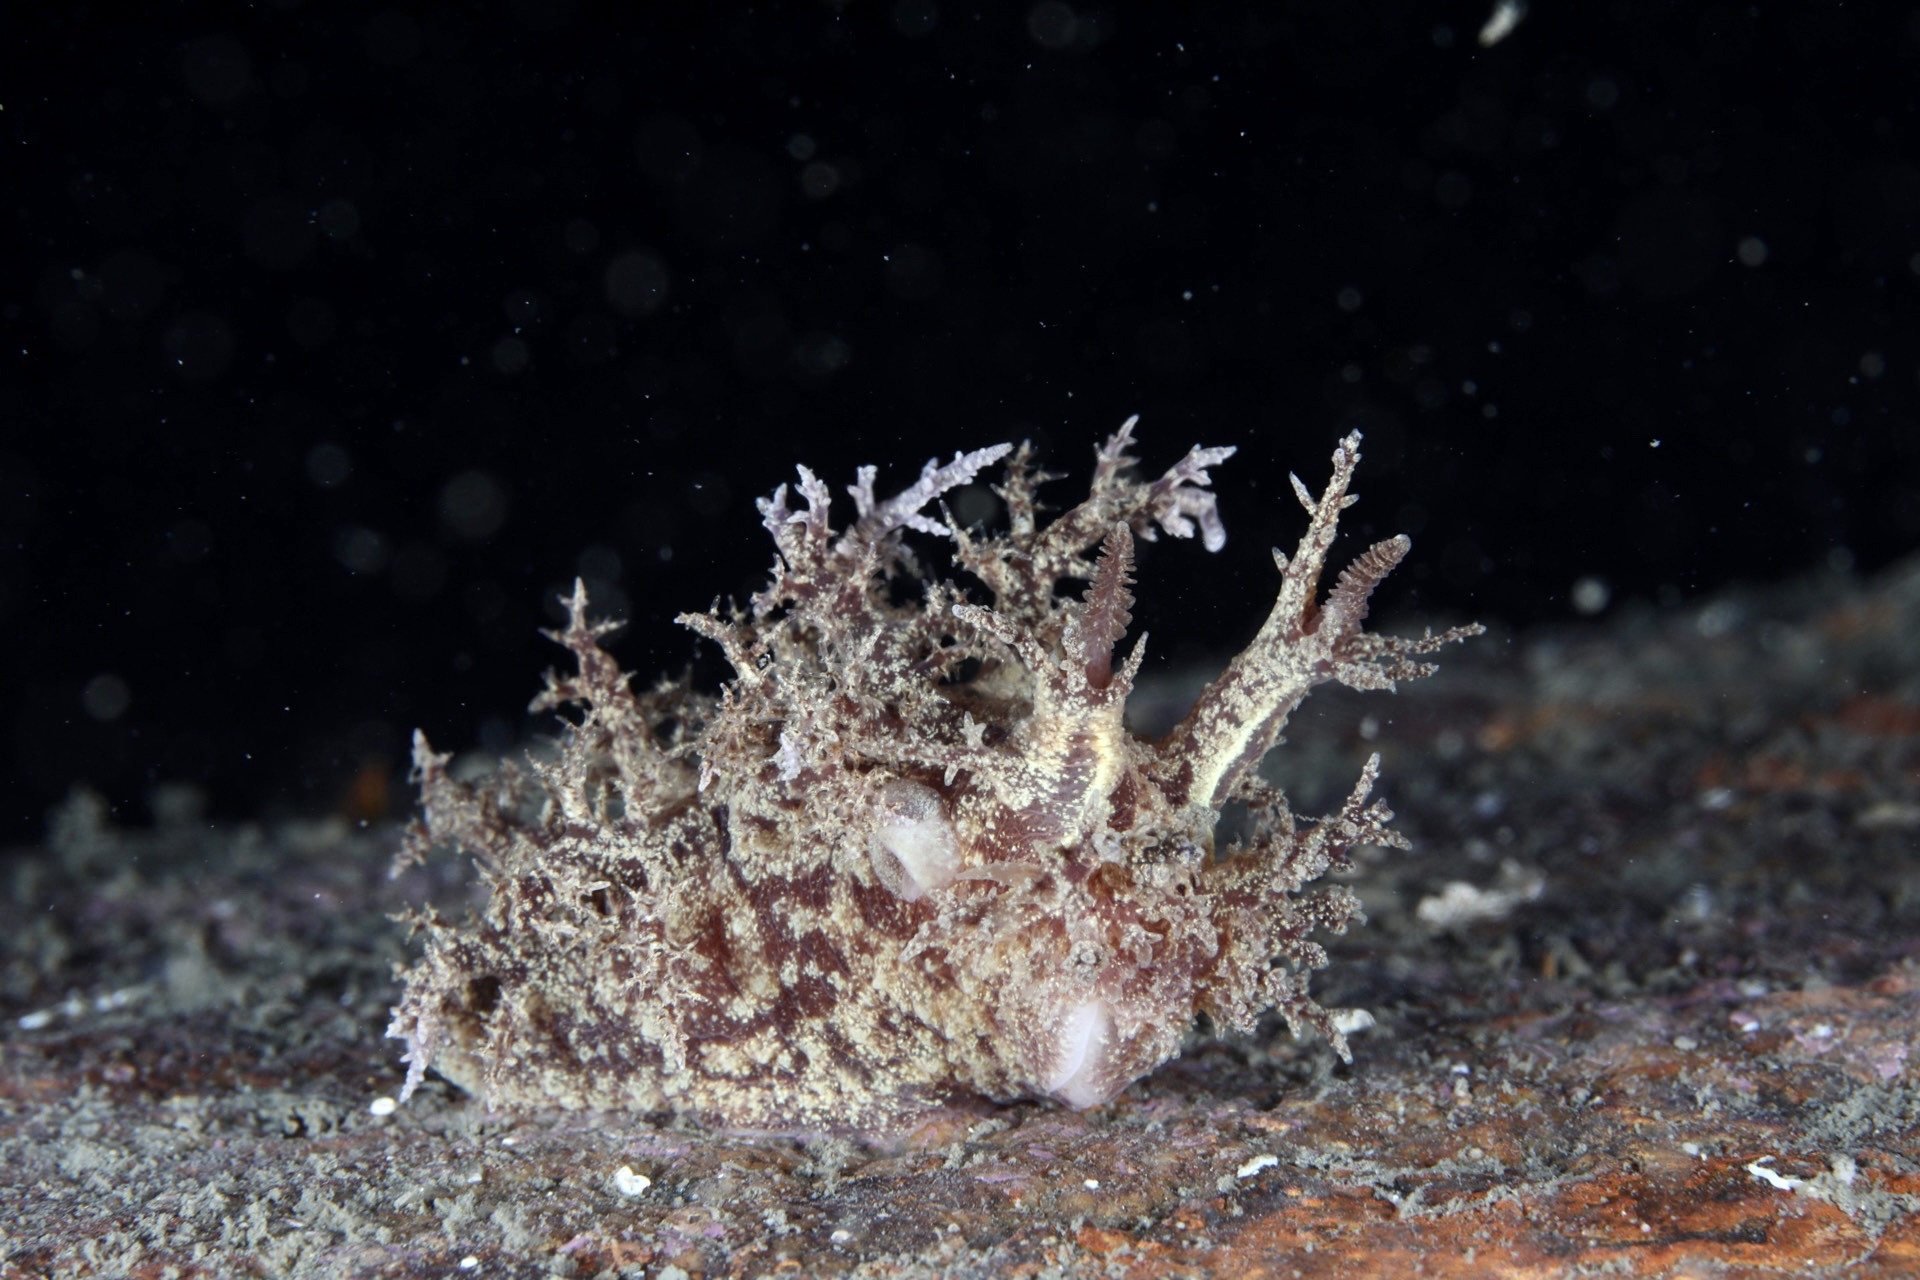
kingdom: Animalia
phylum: Mollusca
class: Gastropoda
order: Nudibranchia
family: Dendronotidae
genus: Dendronotus
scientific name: Dendronotus europaeus
